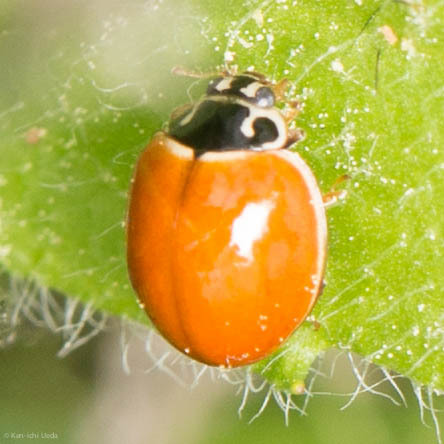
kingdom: Animalia
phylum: Arthropoda
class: Insecta
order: Coleoptera
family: Coccinellidae
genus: Cycloneda
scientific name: Cycloneda munda
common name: Polished lady beetle
